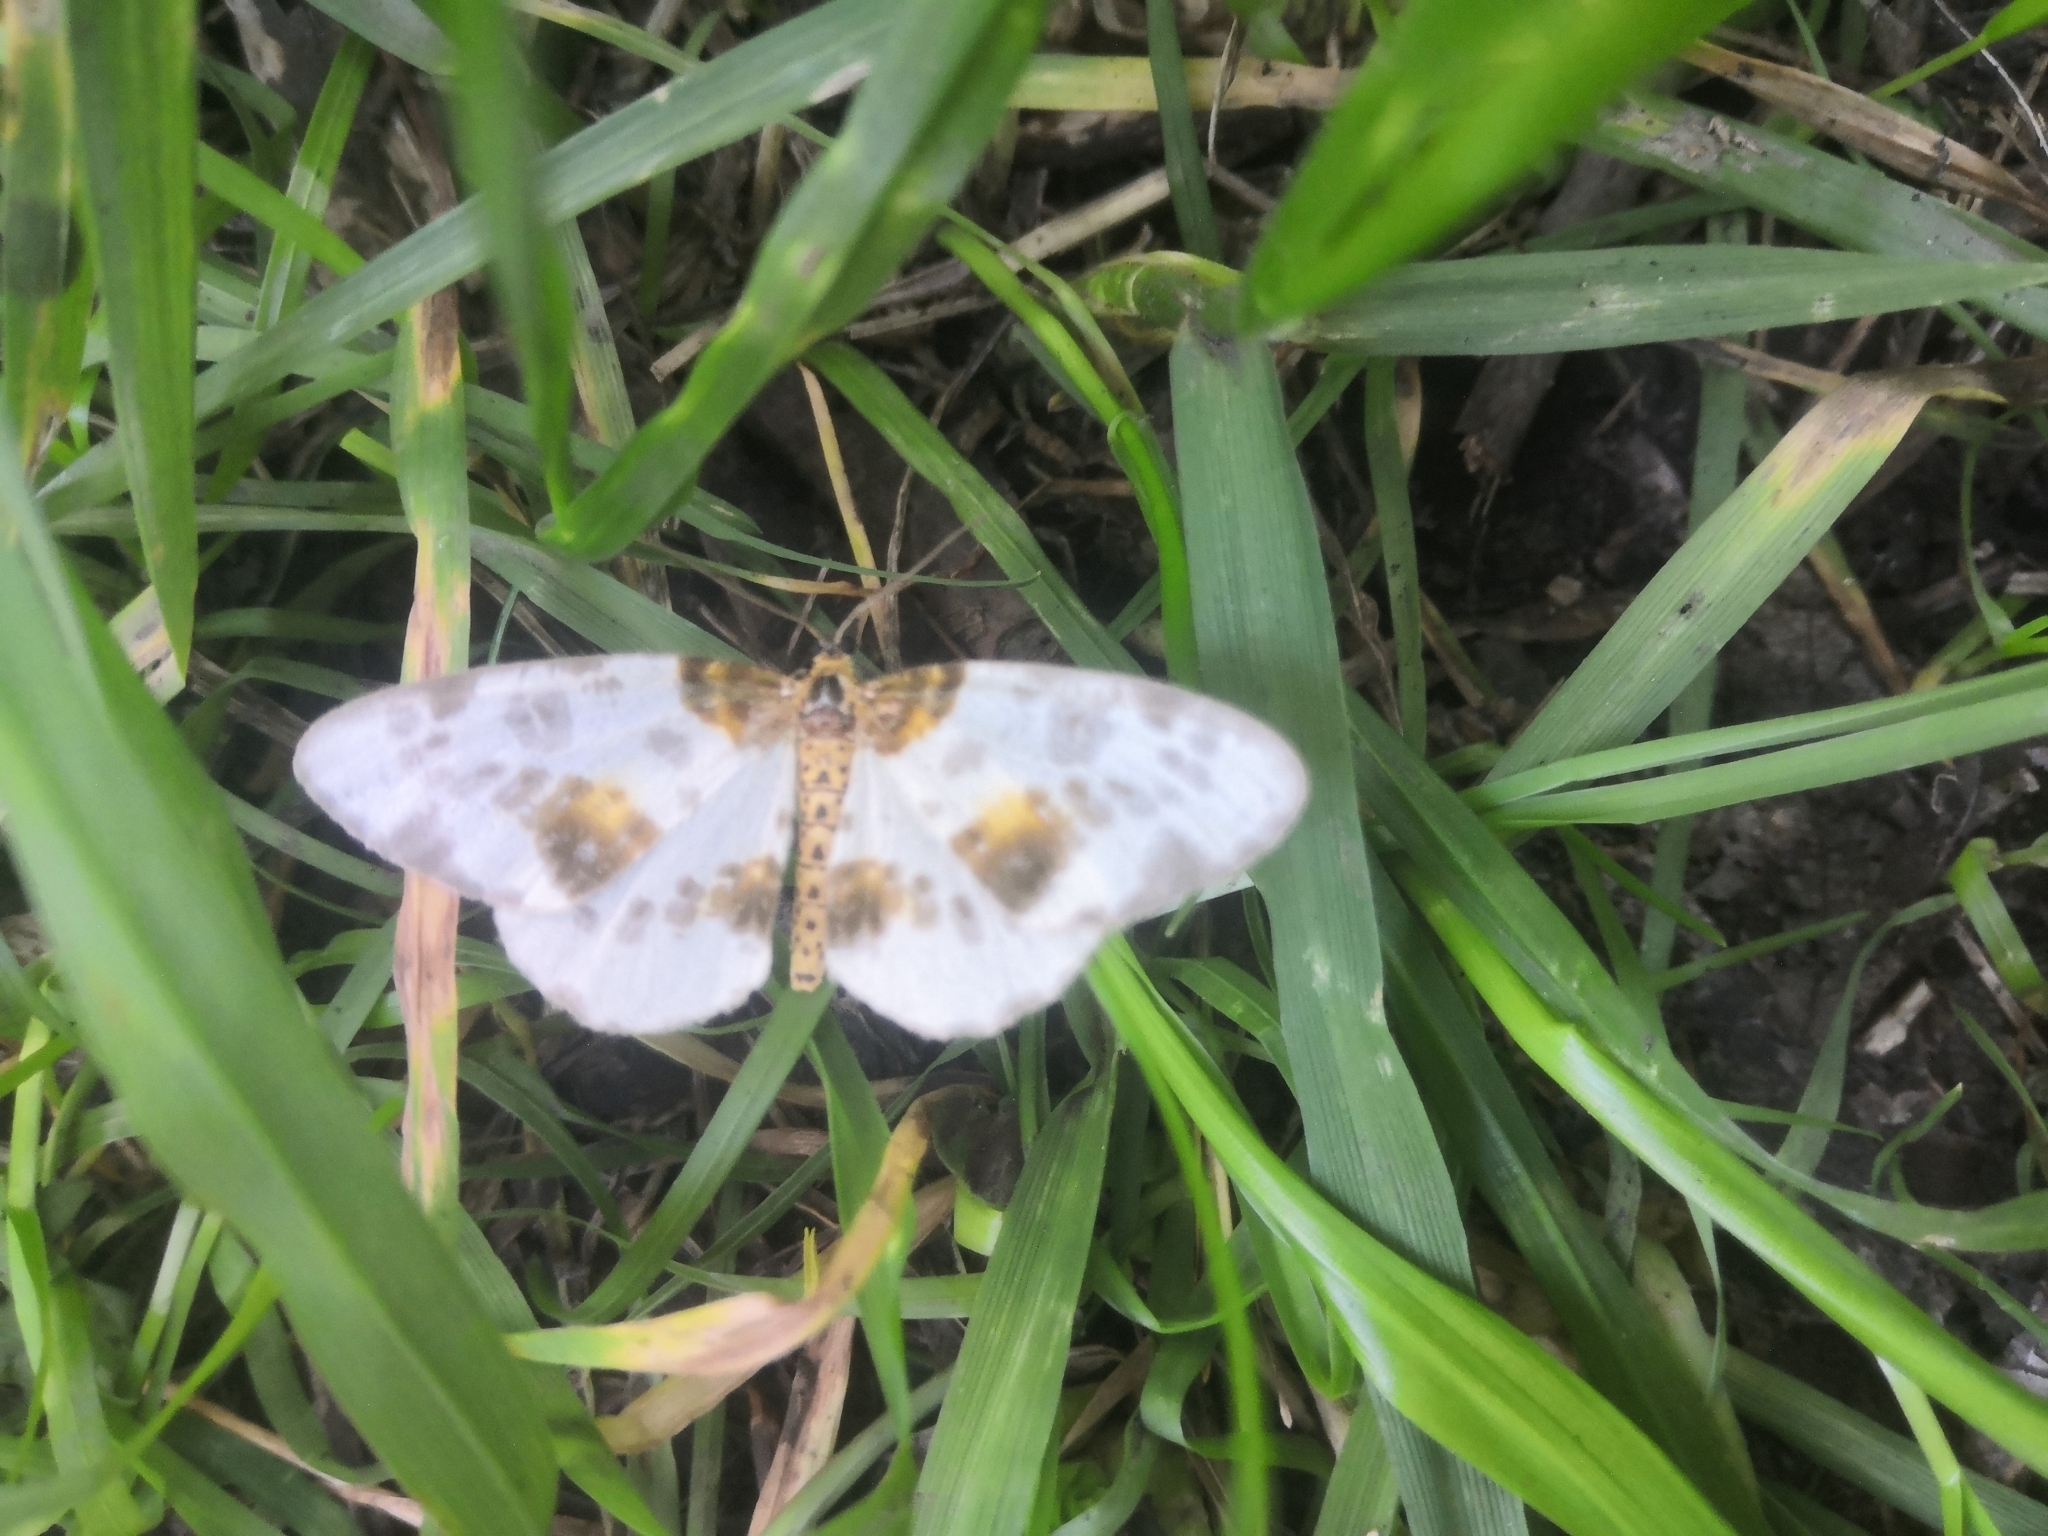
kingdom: Animalia
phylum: Arthropoda
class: Insecta
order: Lepidoptera
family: Geometridae
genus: Abraxas
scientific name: Abraxas sylvata
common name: Clouded magpie
